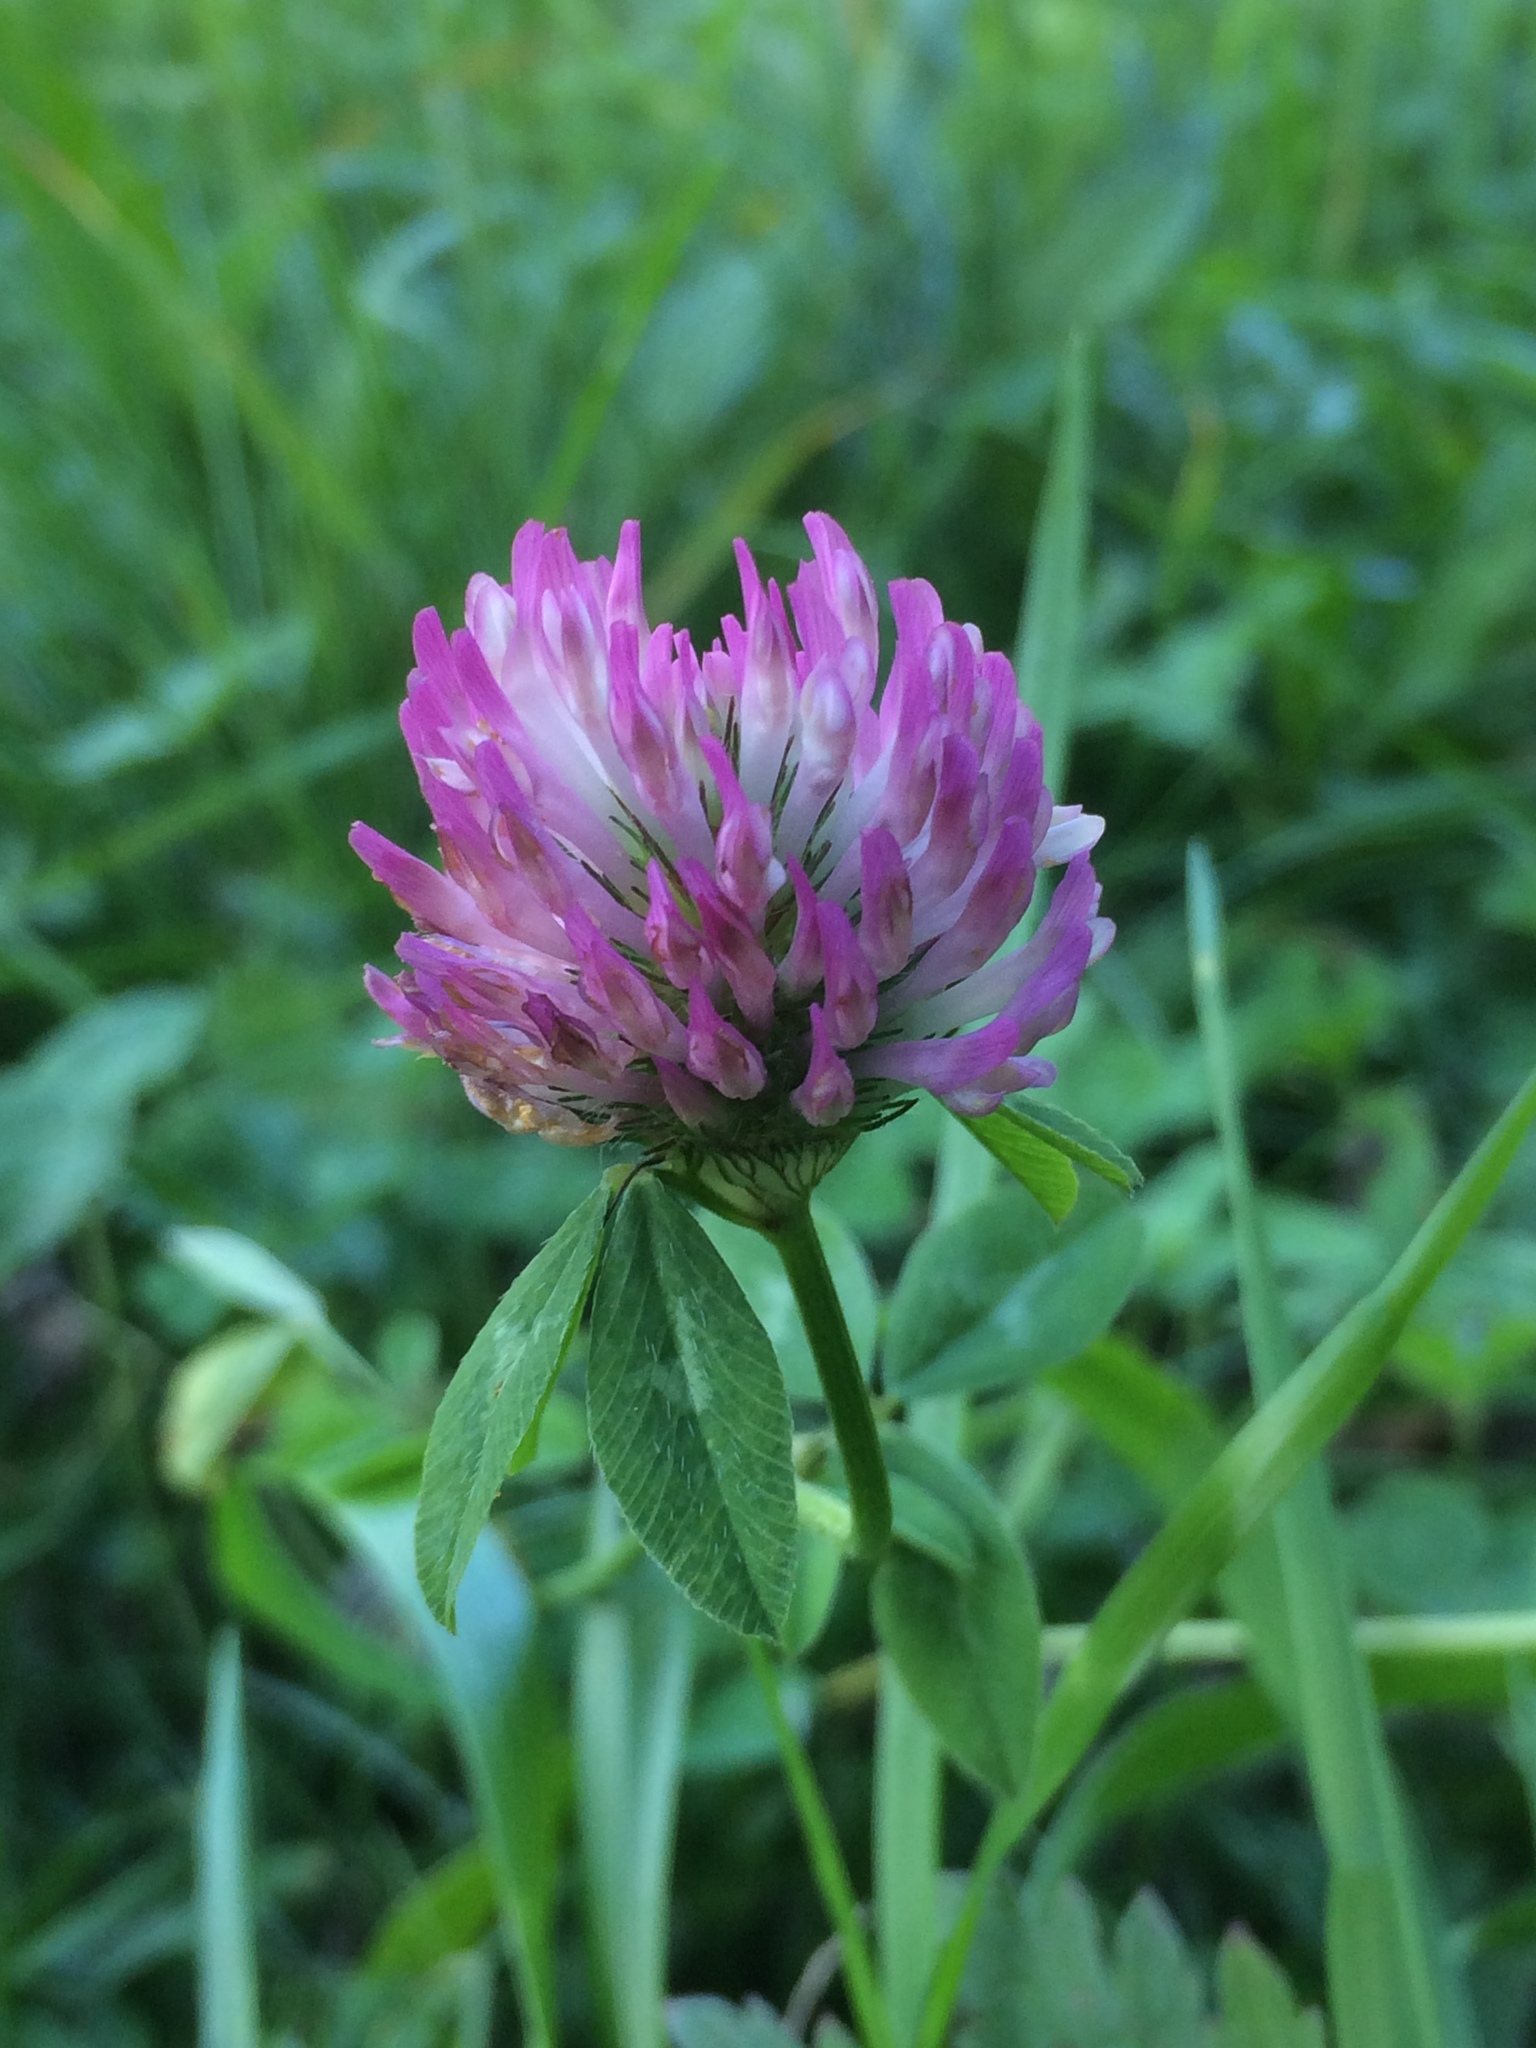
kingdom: Plantae
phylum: Tracheophyta
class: Magnoliopsida
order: Fabales
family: Fabaceae
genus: Trifolium
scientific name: Trifolium pratense
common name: Red clover
